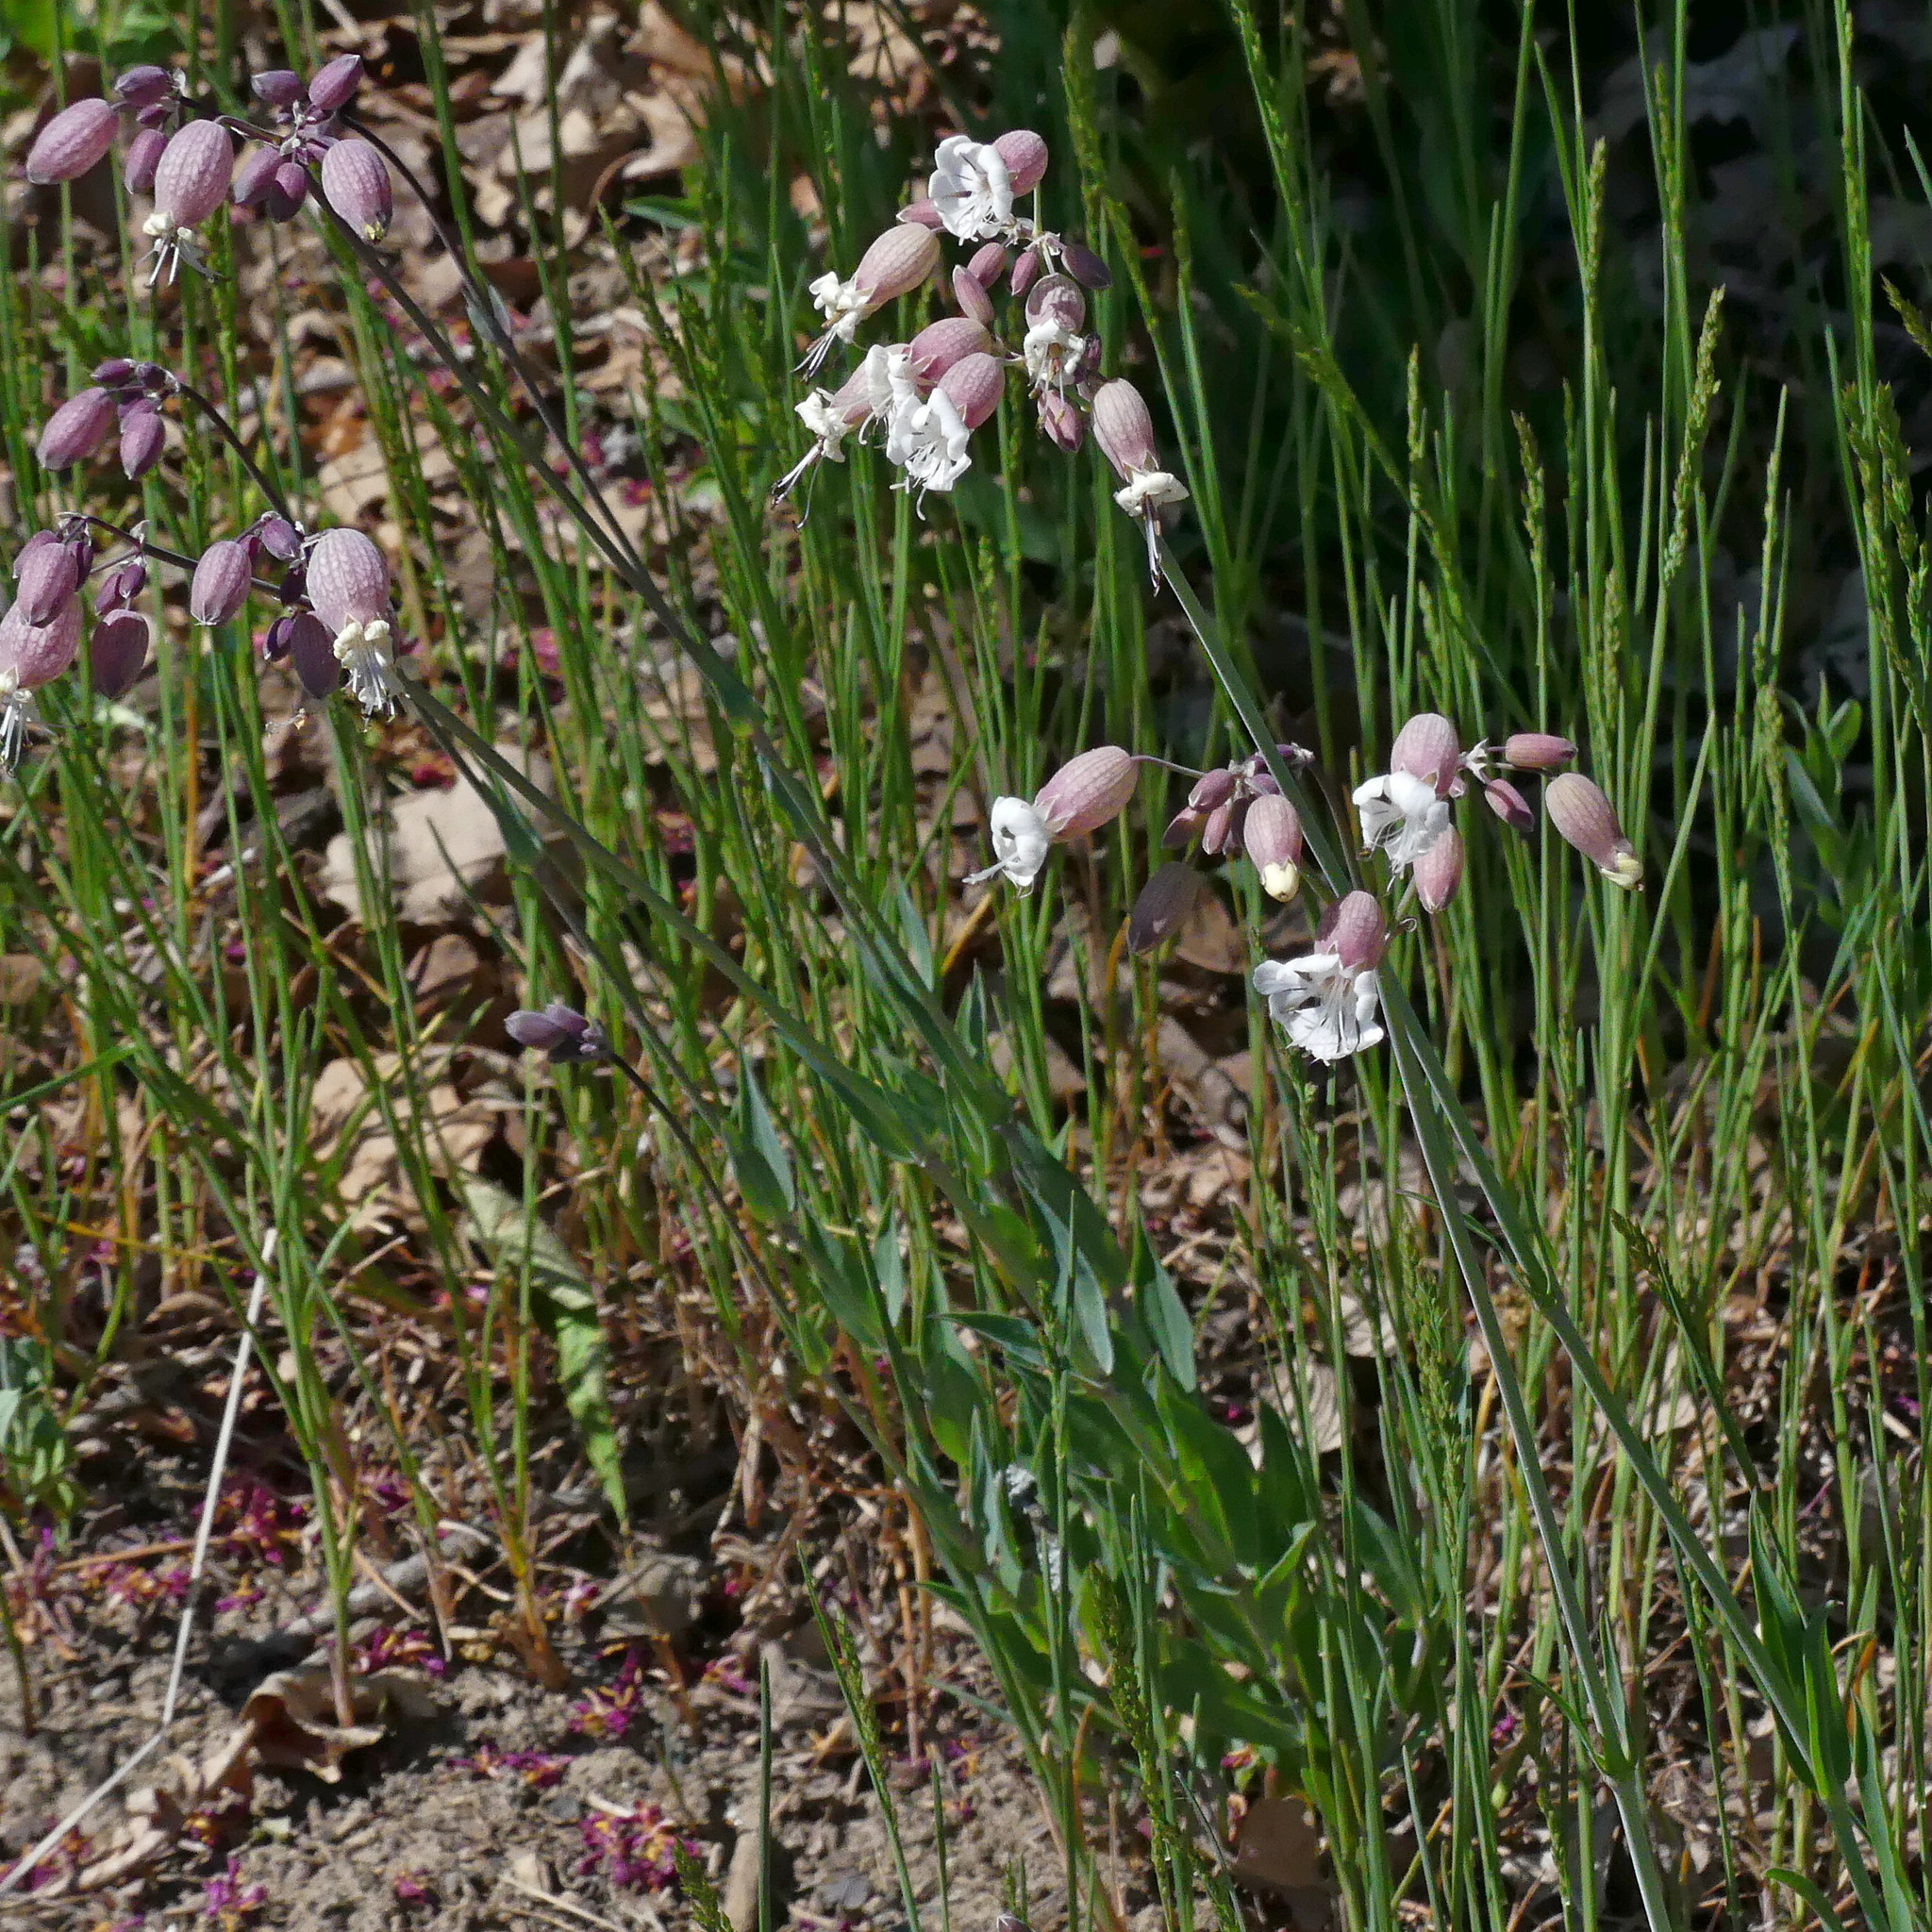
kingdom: Plantae
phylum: Tracheophyta
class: Magnoliopsida
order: Caryophyllales
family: Caryophyllaceae
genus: Silene
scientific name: Silene vulgaris
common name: Bladder campion
